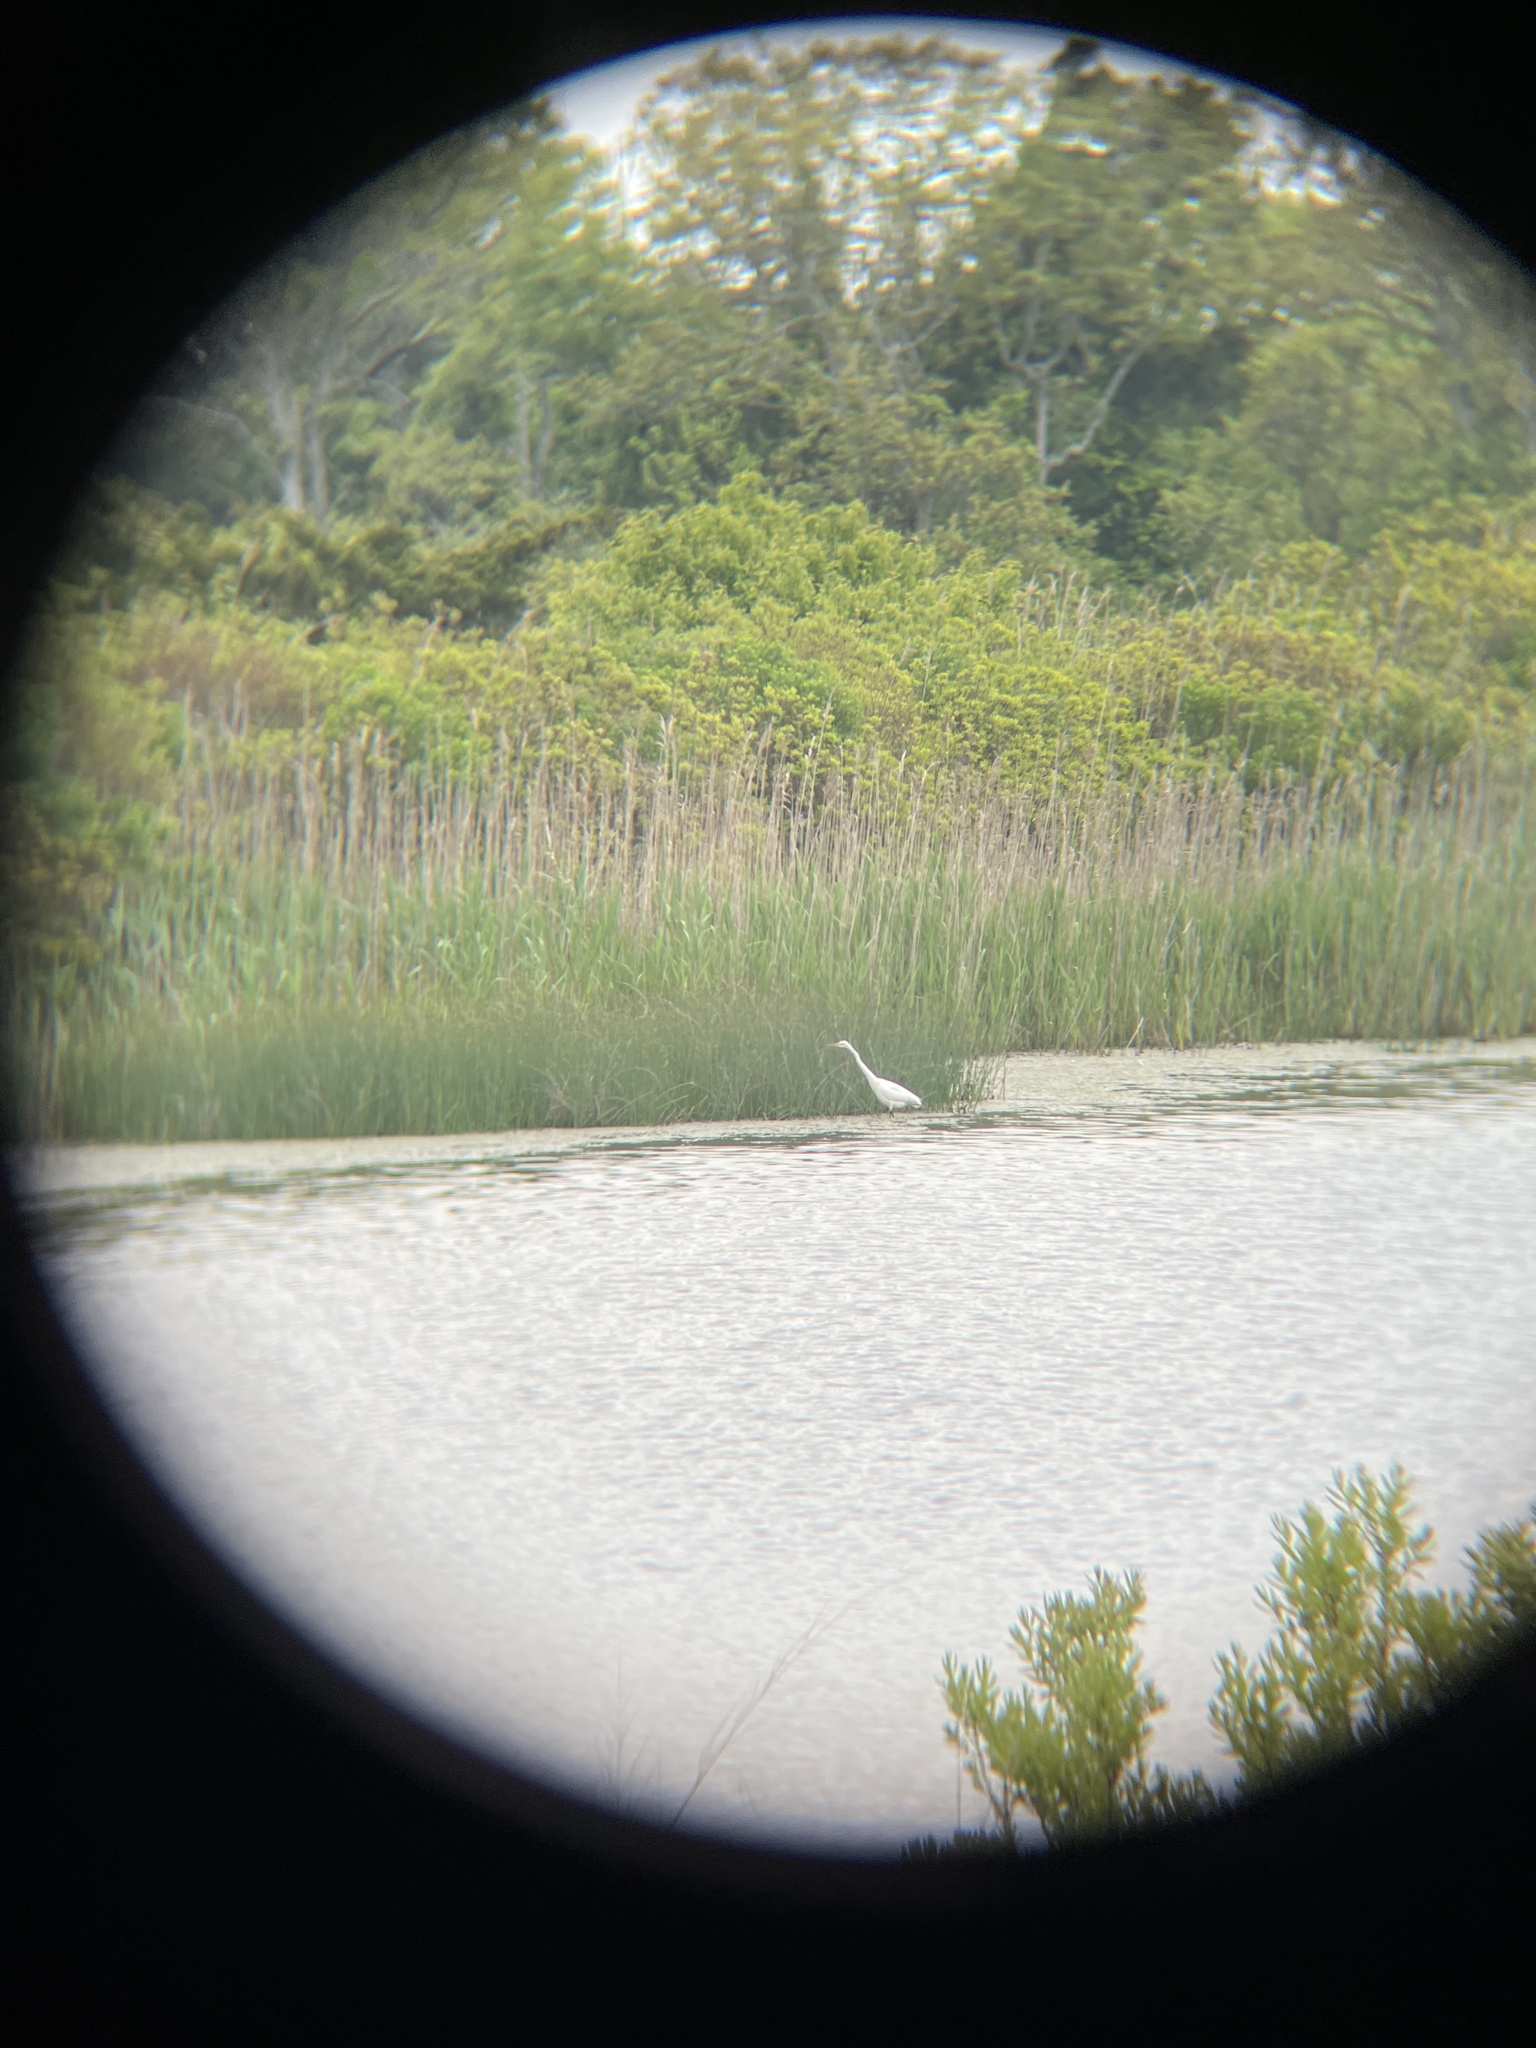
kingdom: Animalia
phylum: Chordata
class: Aves
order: Pelecaniformes
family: Ardeidae
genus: Ardea
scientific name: Ardea alba
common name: Great egret
